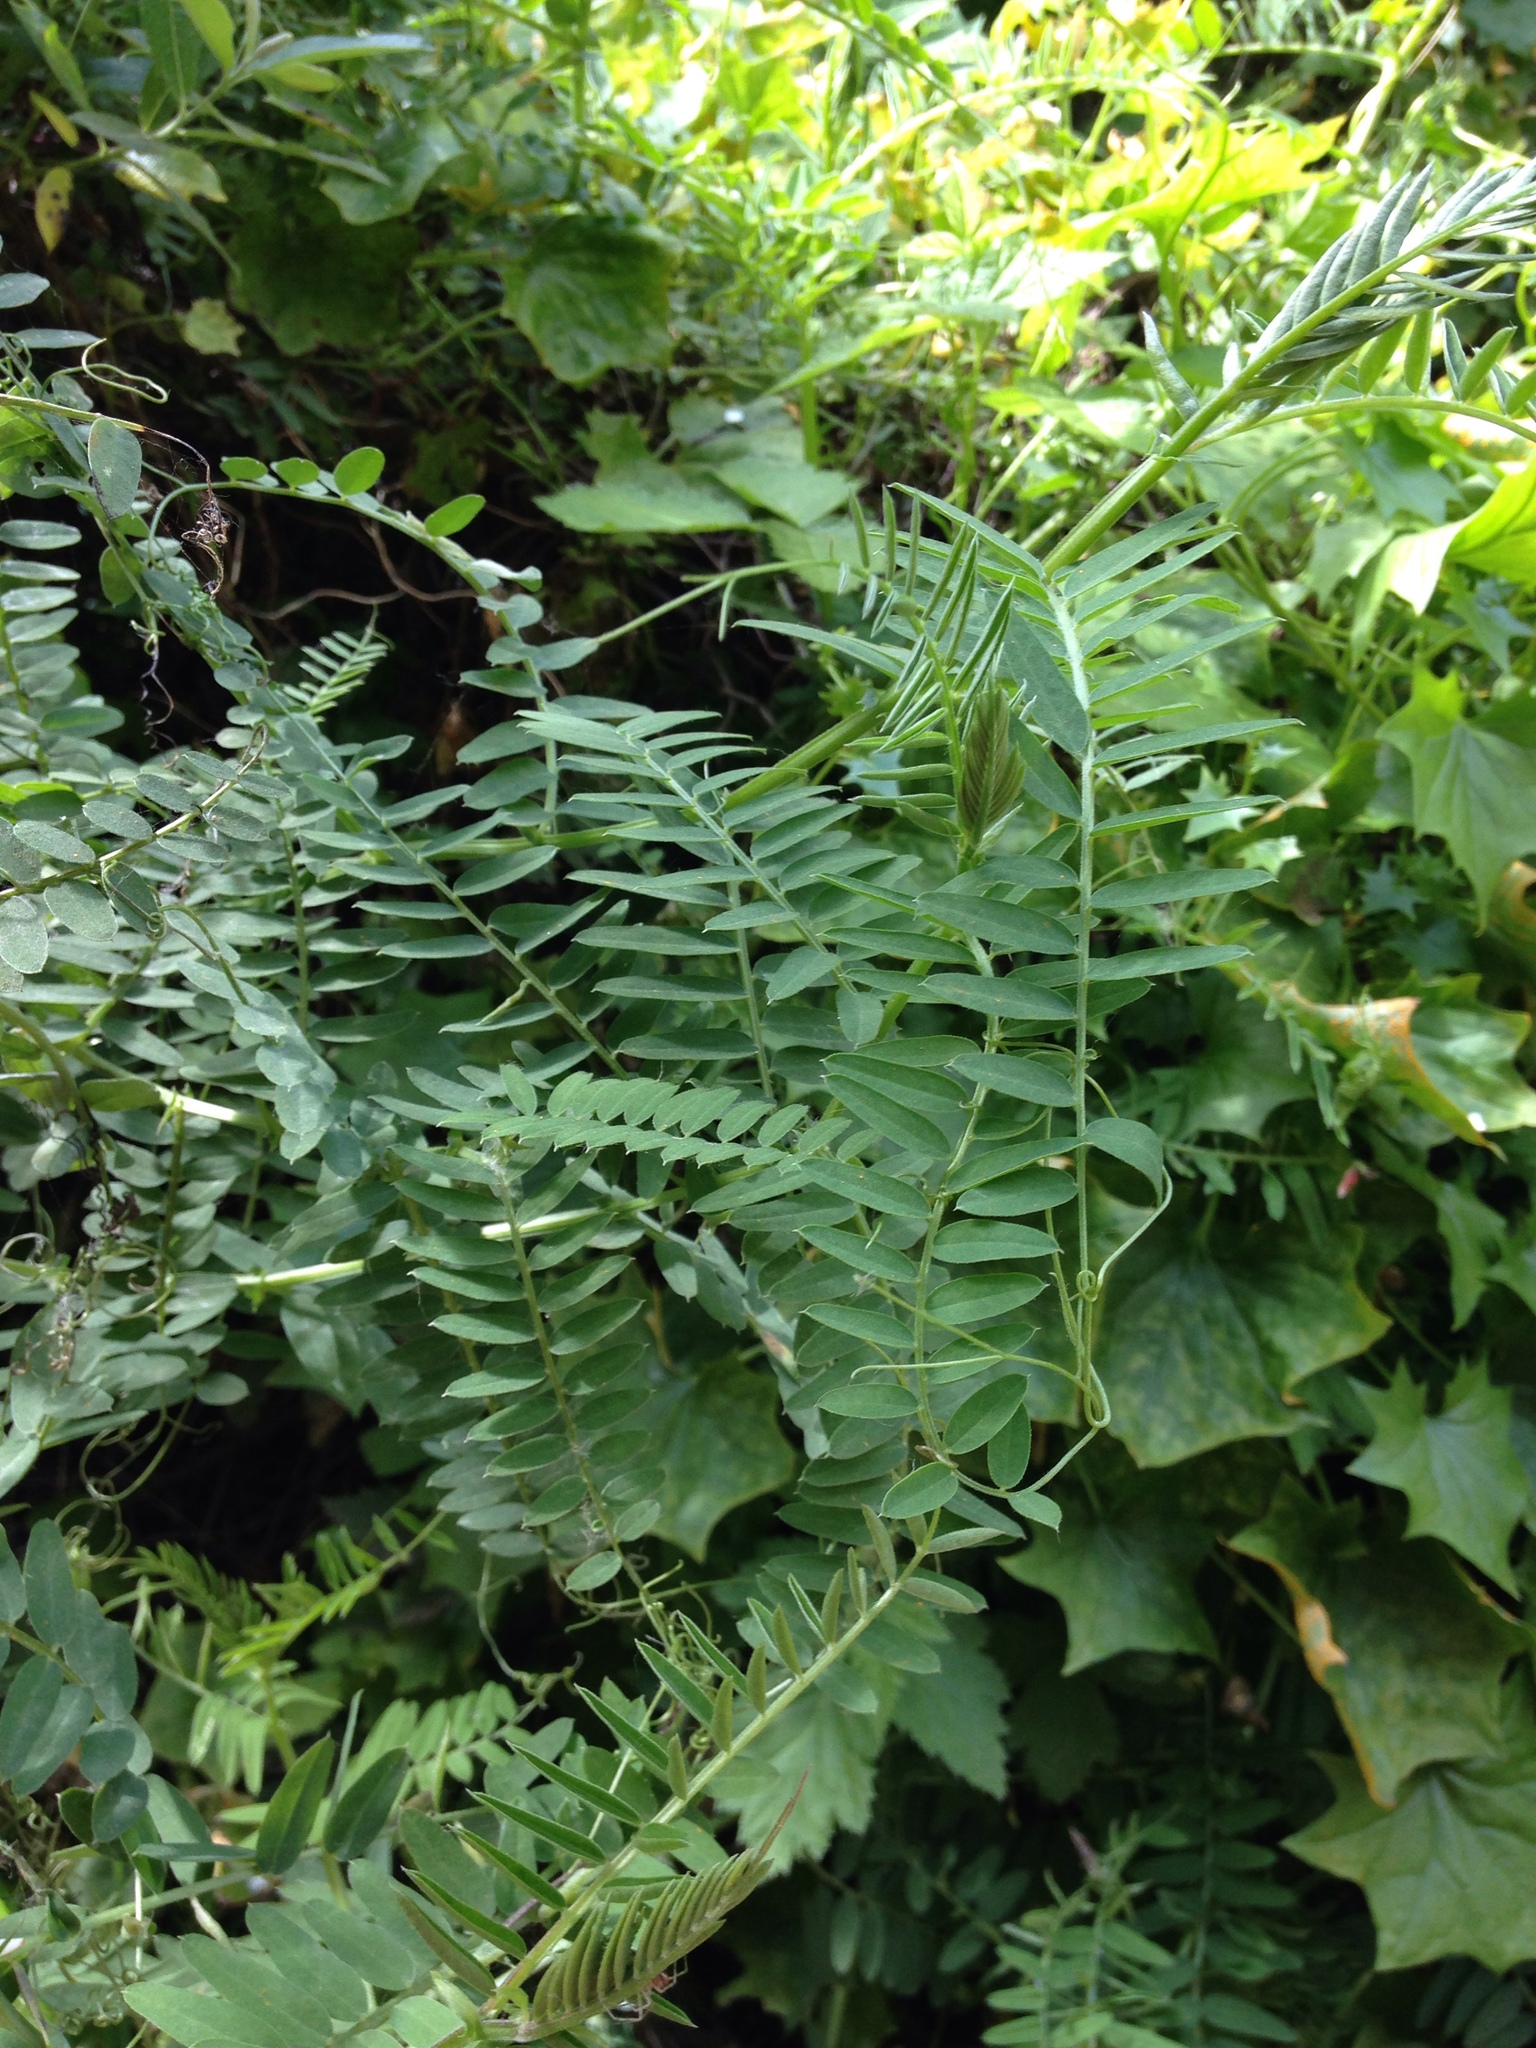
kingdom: Plantae
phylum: Tracheophyta
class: Magnoliopsida
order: Fabales
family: Fabaceae
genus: Vicia
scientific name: Vicia
